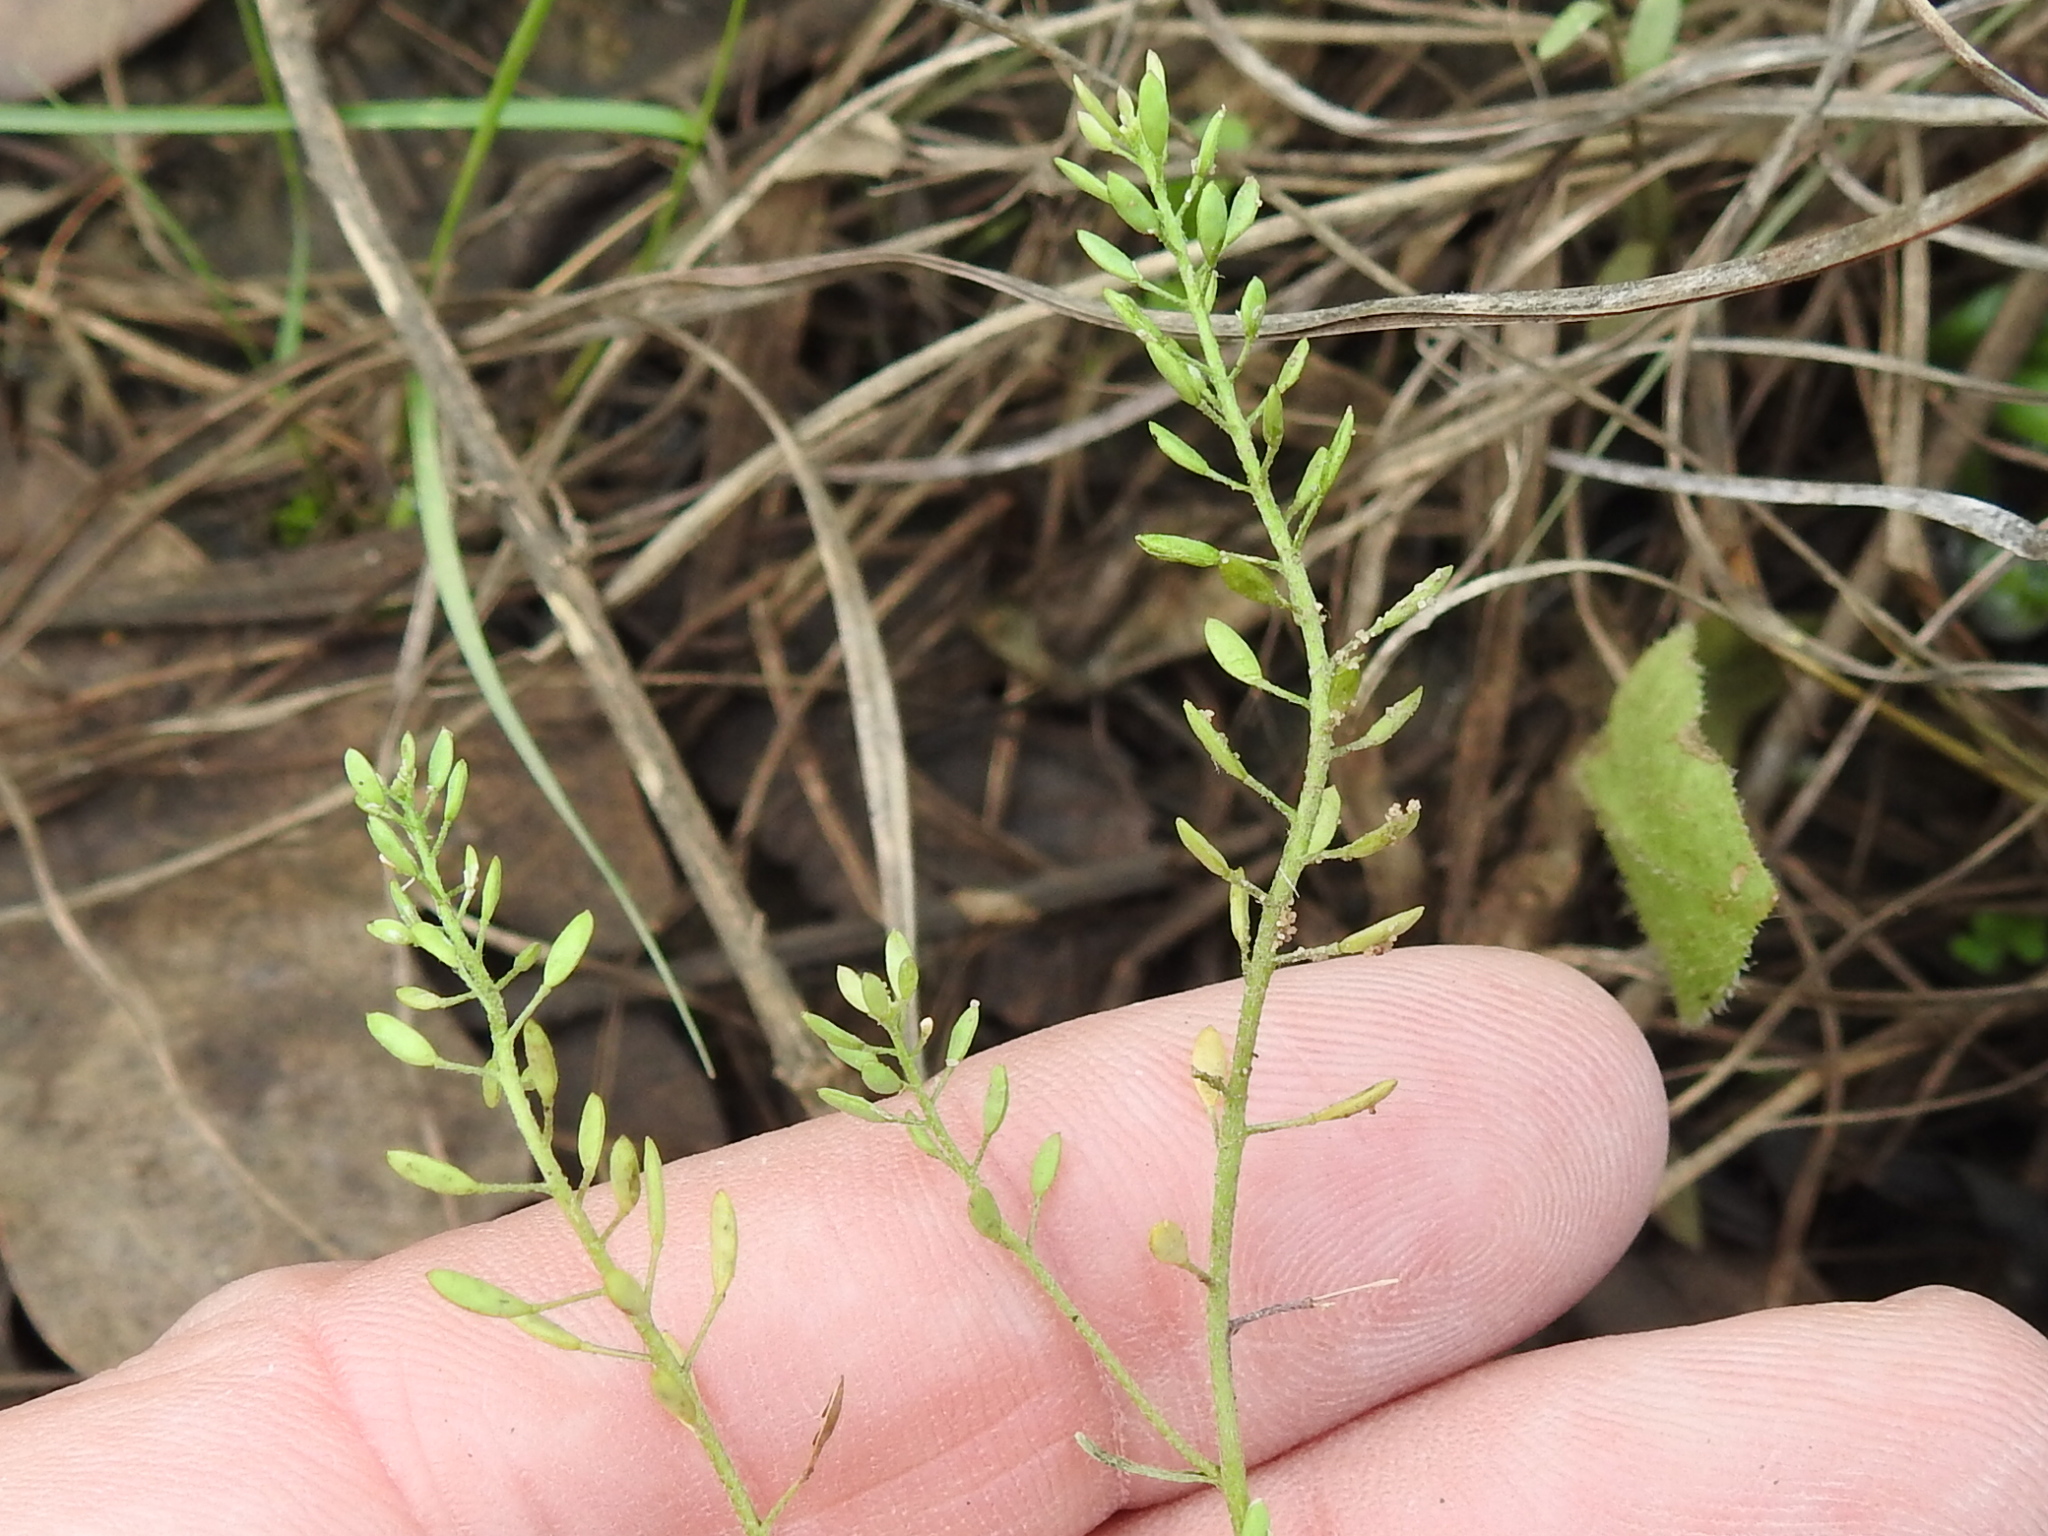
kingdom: Plantae
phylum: Tracheophyta
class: Magnoliopsida
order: Brassicales
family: Brassicaceae
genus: Abdra
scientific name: Abdra brachycarpa
